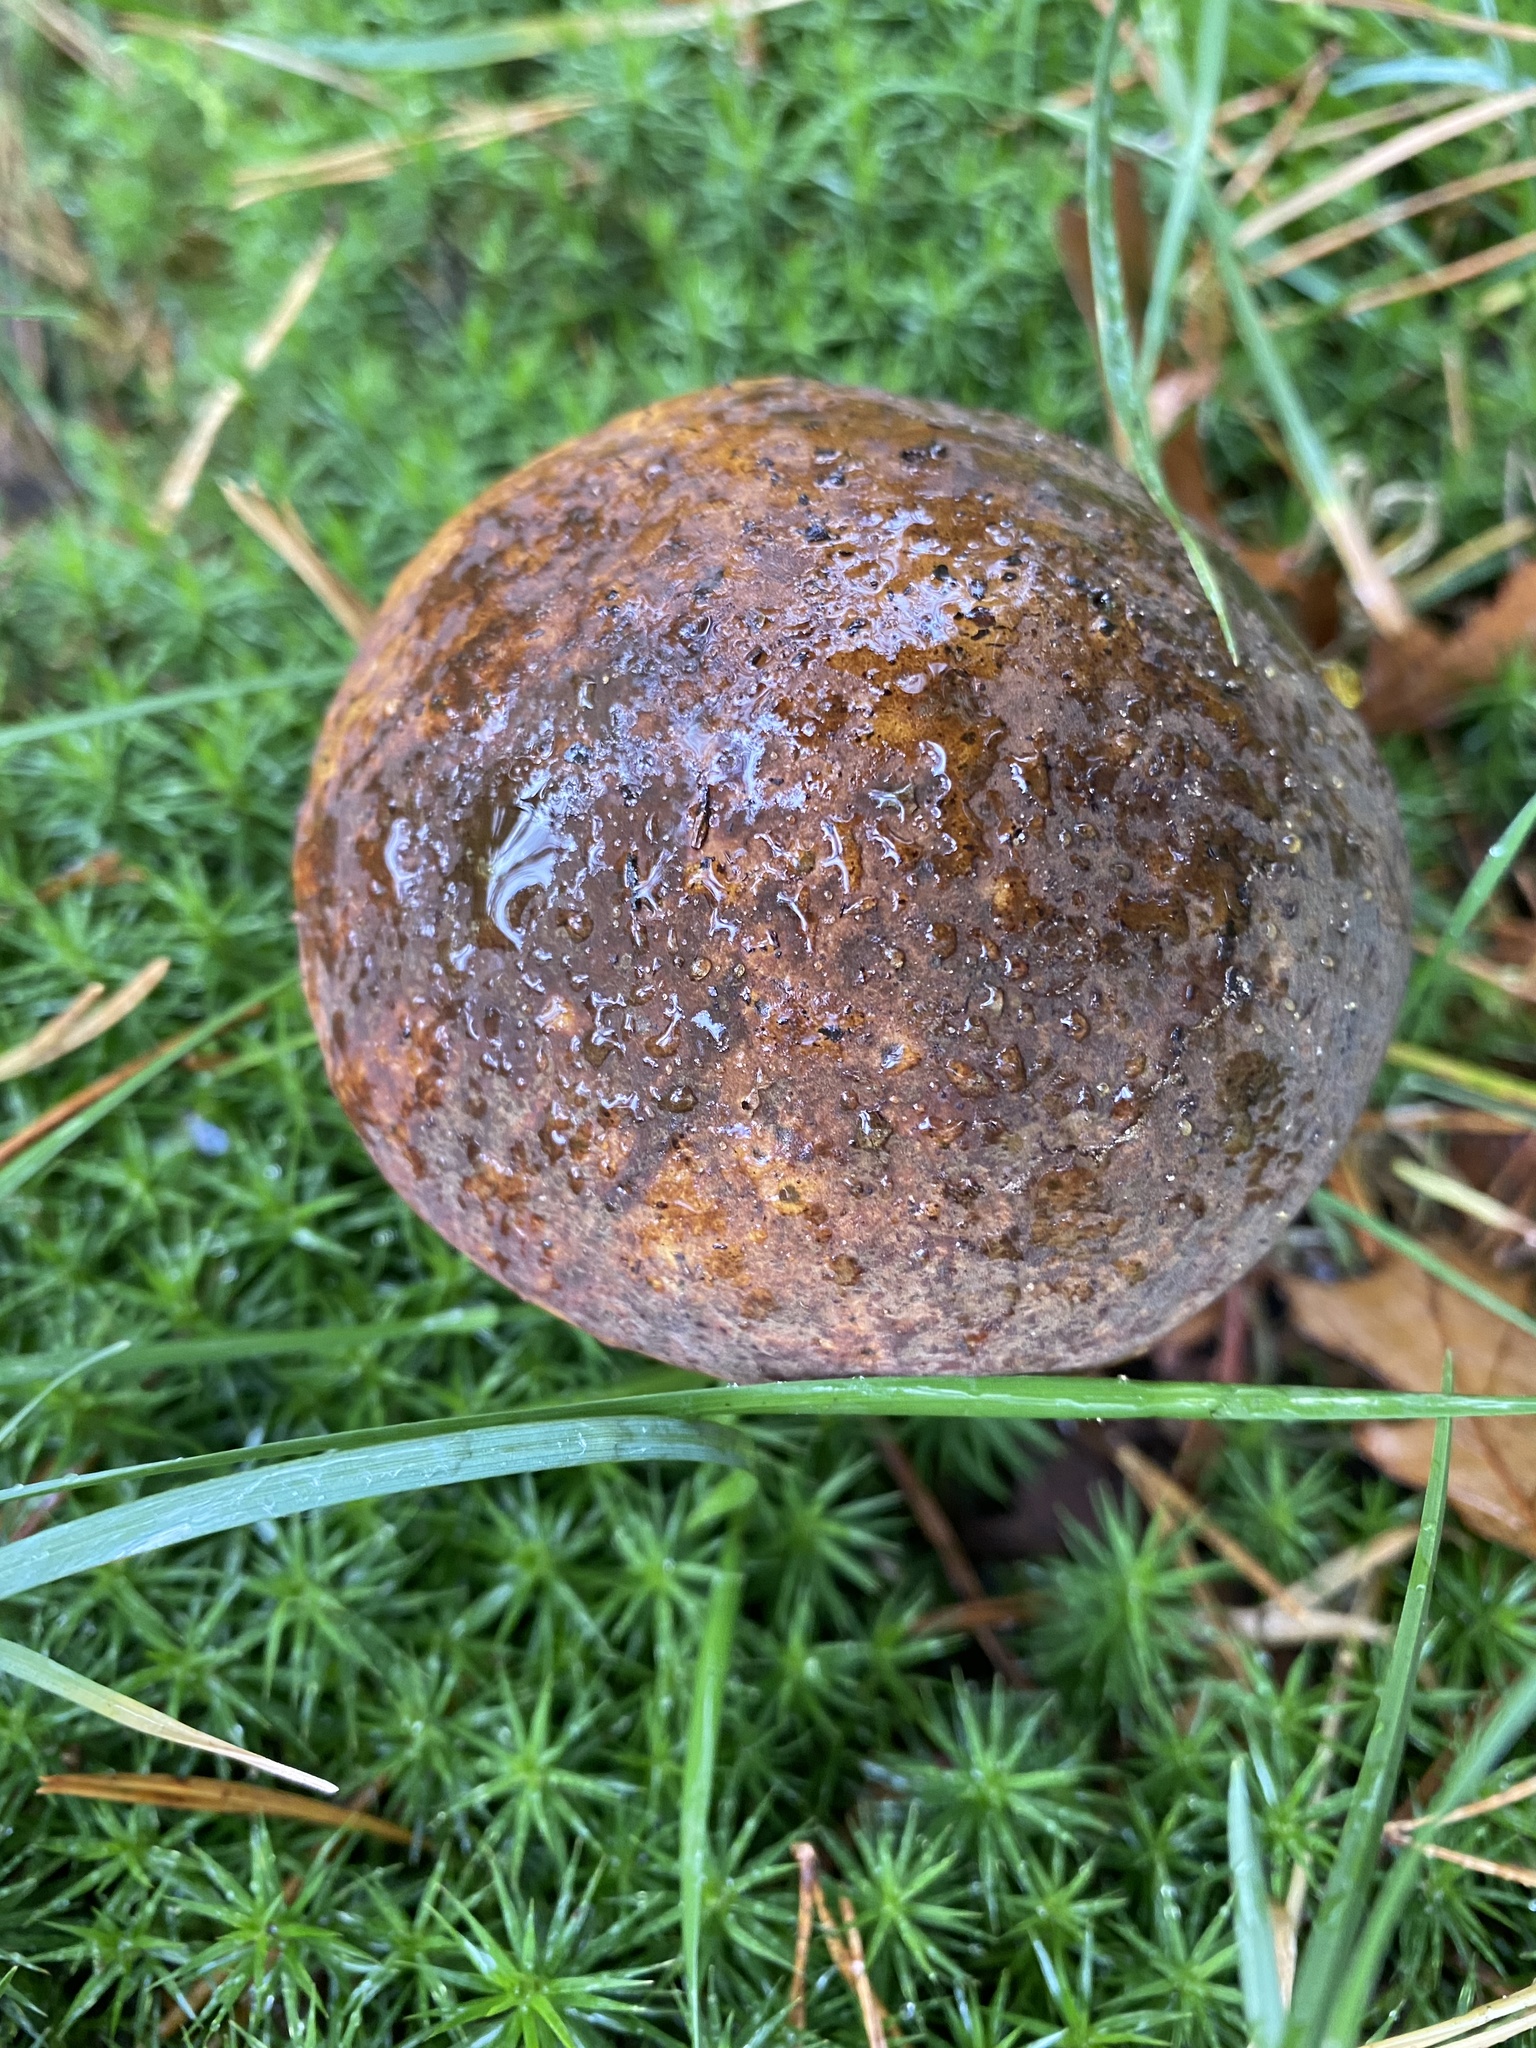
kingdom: Fungi
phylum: Basidiomycota
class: Agaricomycetes
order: Boletales
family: Boletaceae
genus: Neoboletus
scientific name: Neoboletus erythropus
